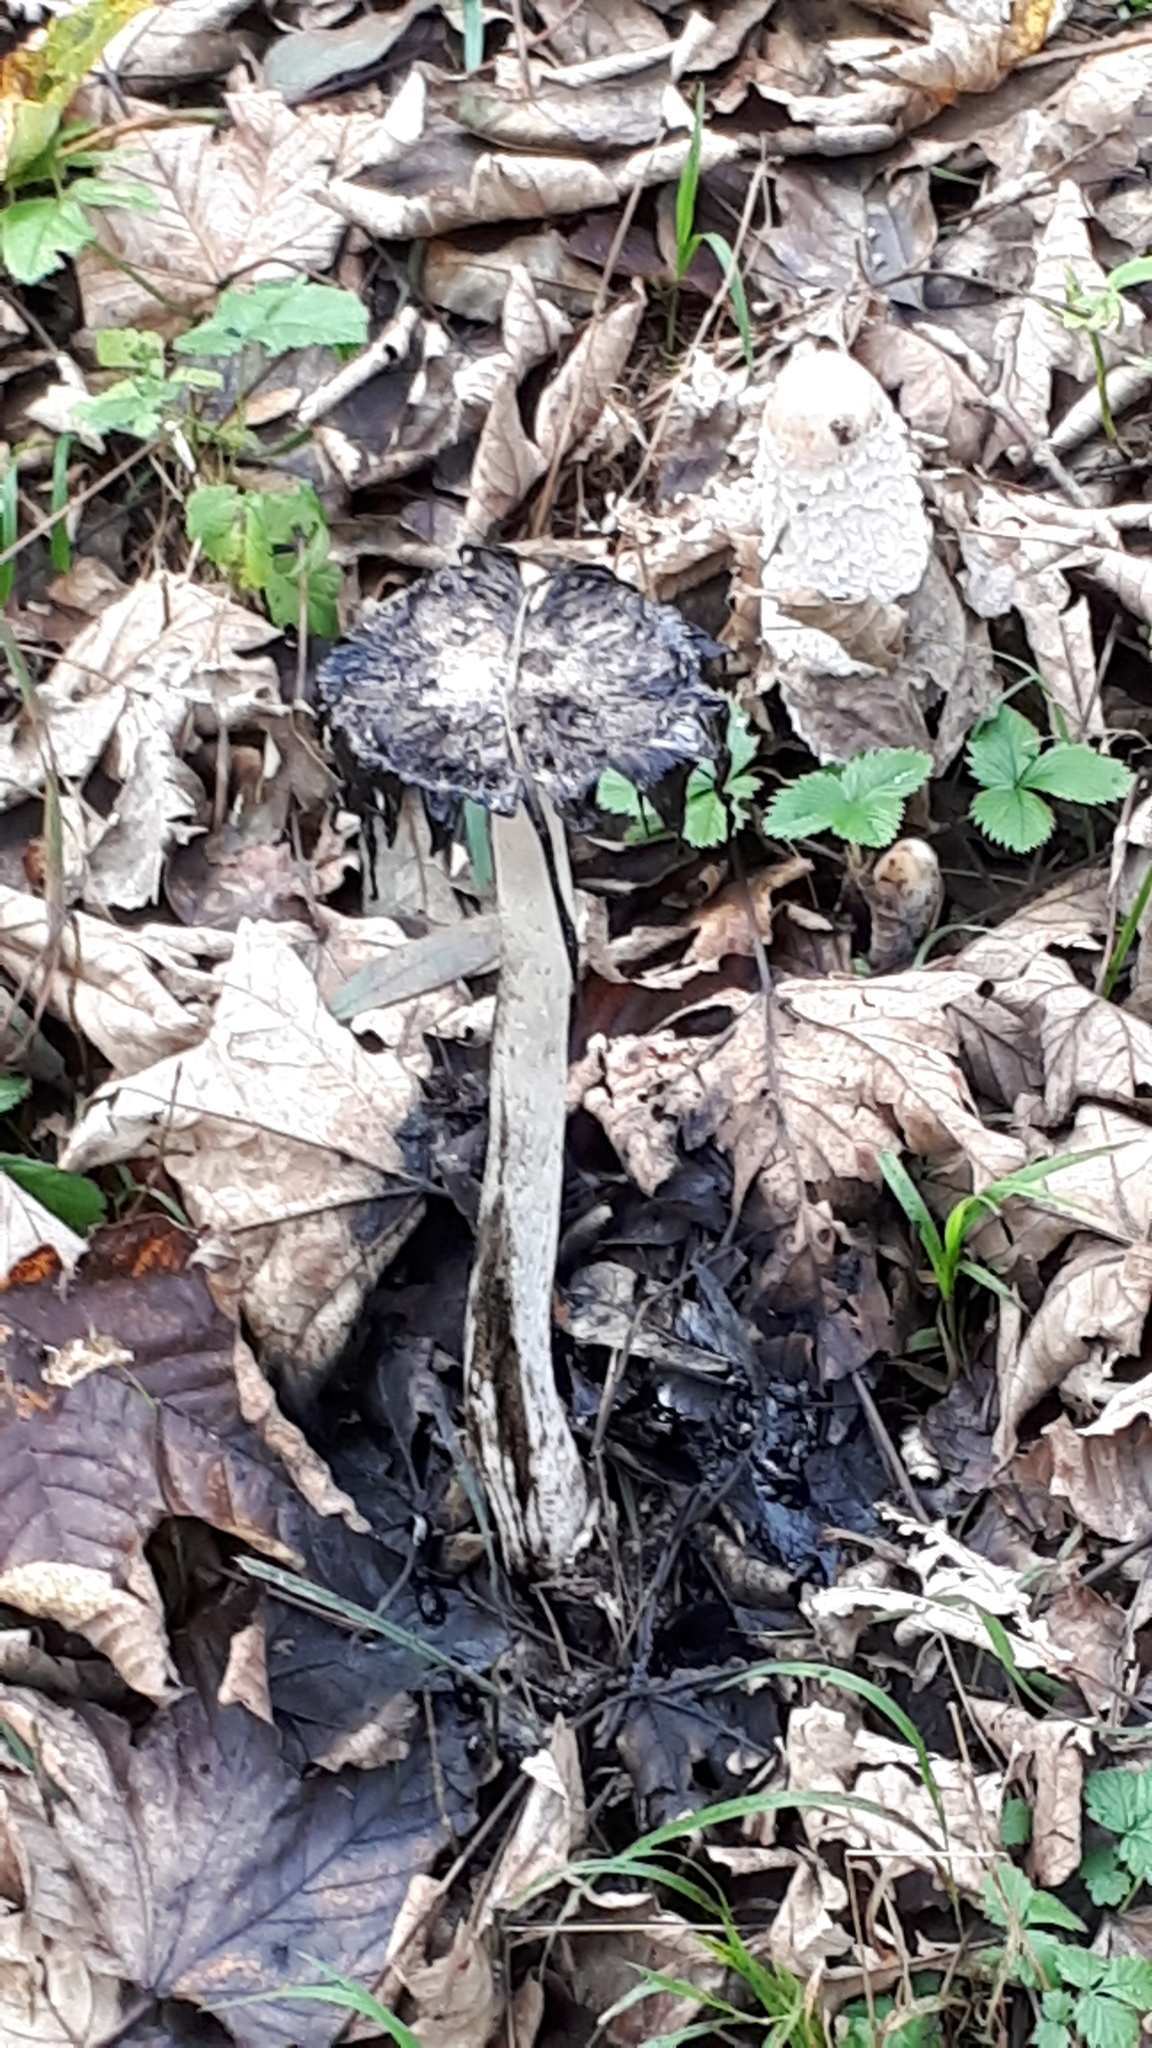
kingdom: Fungi
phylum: Basidiomycota
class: Agaricomycetes
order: Agaricales
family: Agaricaceae
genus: Coprinus
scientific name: Coprinus comatus
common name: Lawyer's wig
